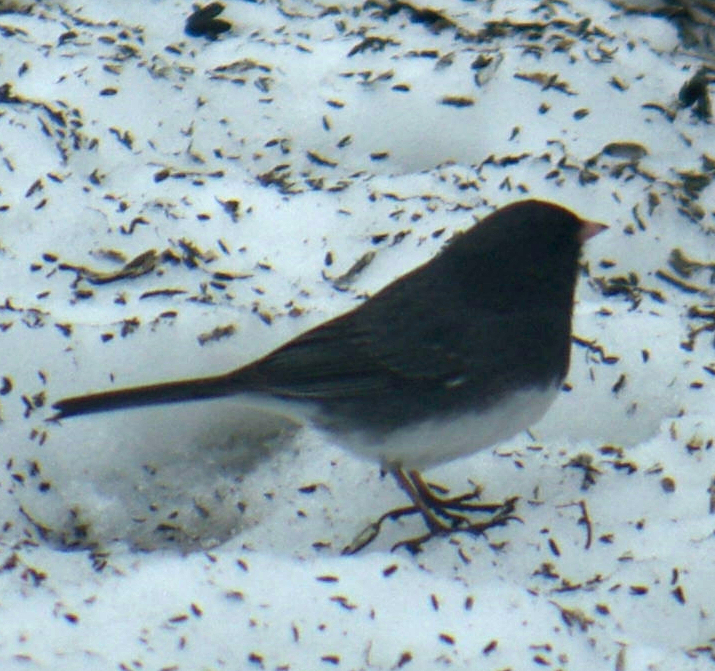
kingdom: Animalia
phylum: Chordata
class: Aves
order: Passeriformes
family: Passerellidae
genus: Junco
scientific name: Junco hyemalis
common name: Dark-eyed junco
